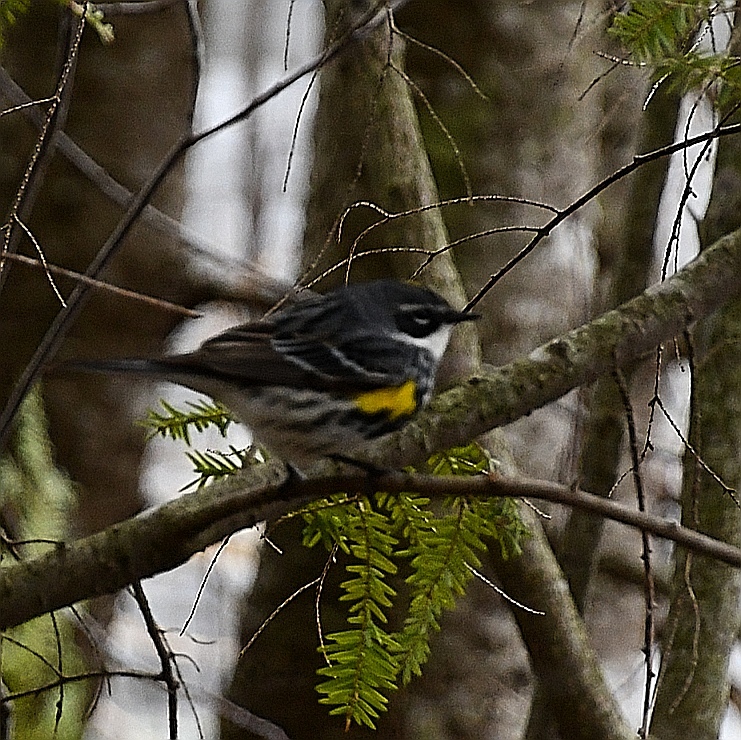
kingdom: Animalia
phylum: Chordata
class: Aves
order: Passeriformes
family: Parulidae
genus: Setophaga
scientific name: Setophaga coronata
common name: Myrtle warbler
